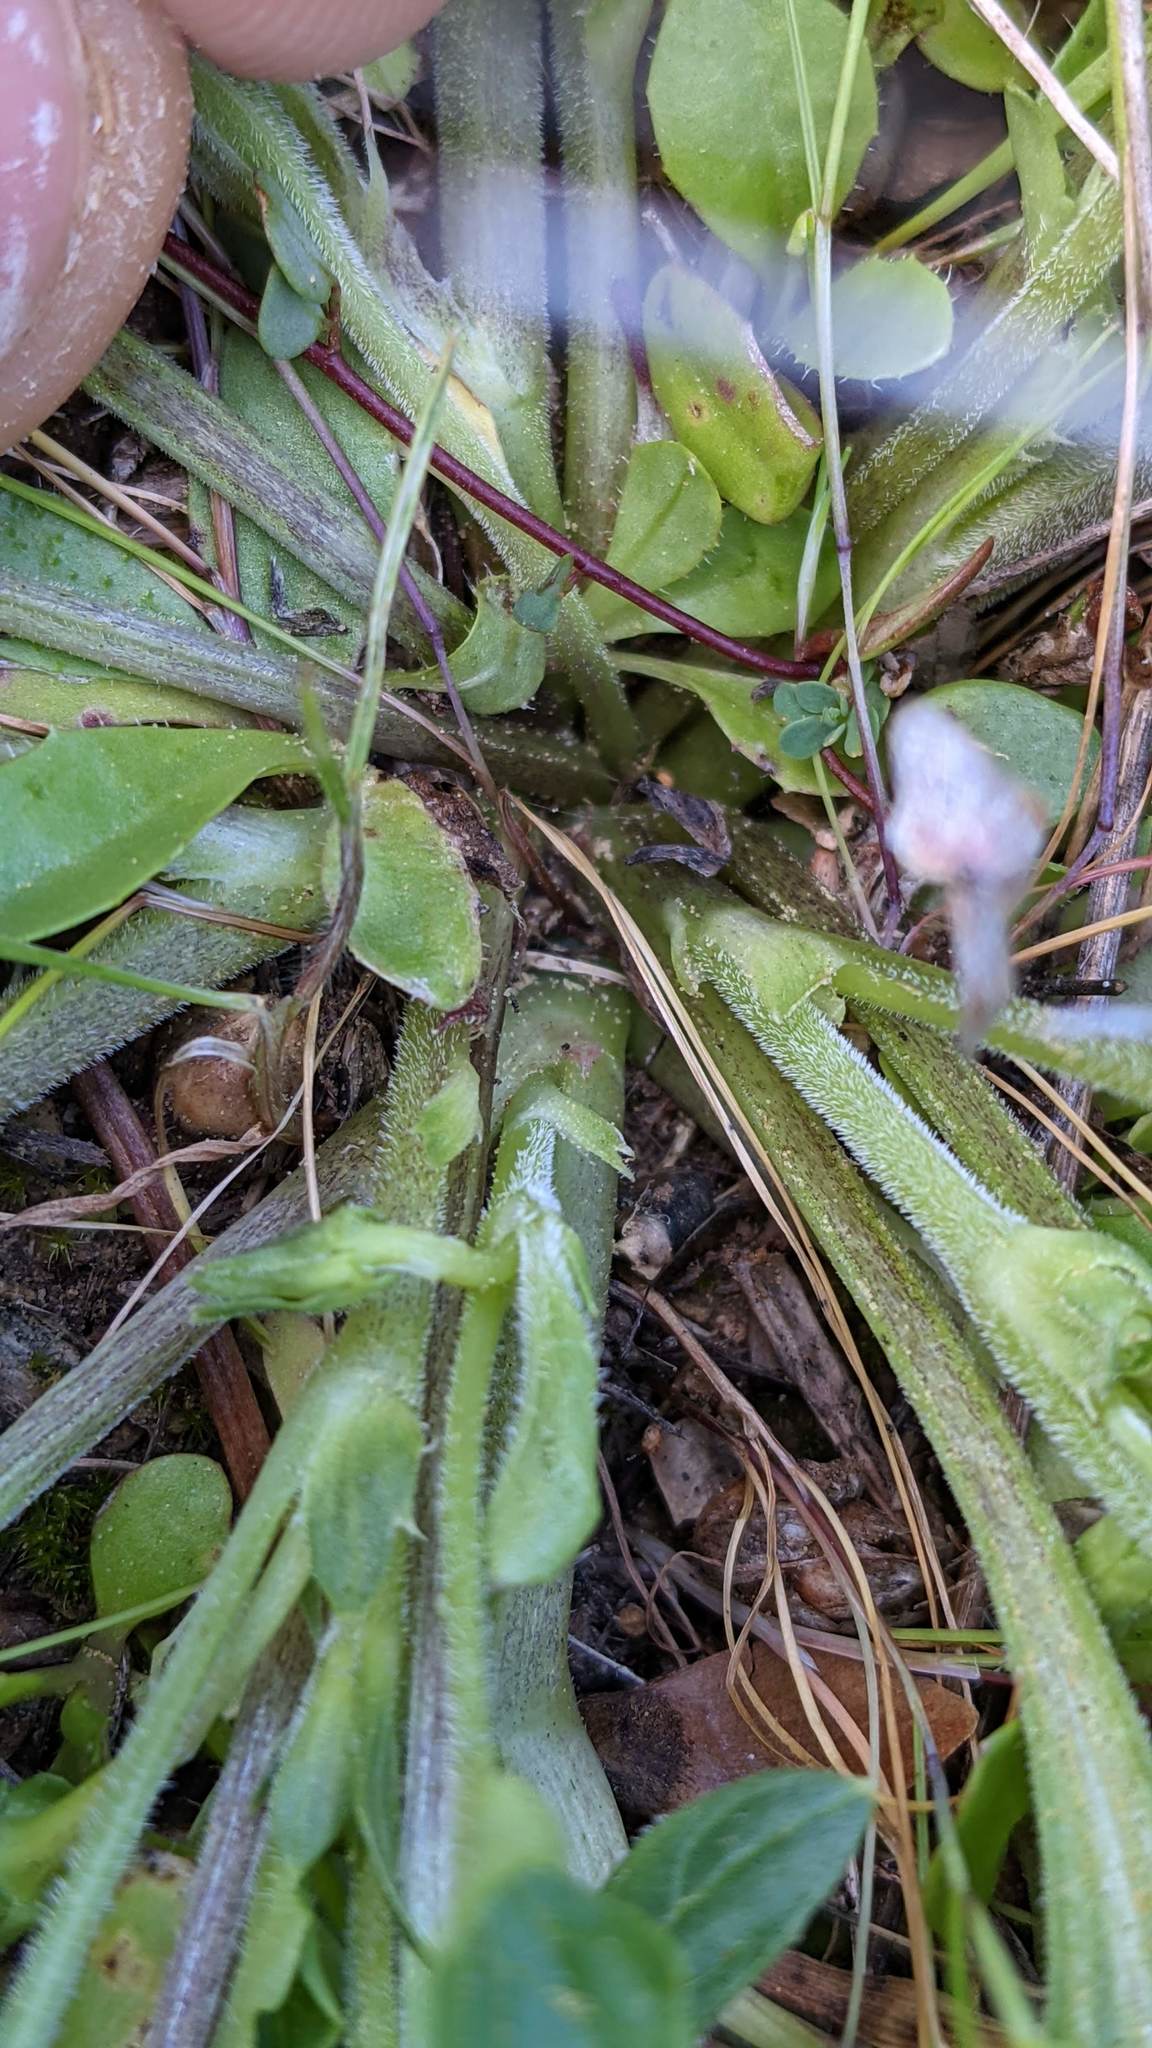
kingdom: Plantae
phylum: Tracheophyta
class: Magnoliopsida
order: Malpighiales
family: Violaceae
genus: Viola
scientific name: Viola purpurea
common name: Pine violet
